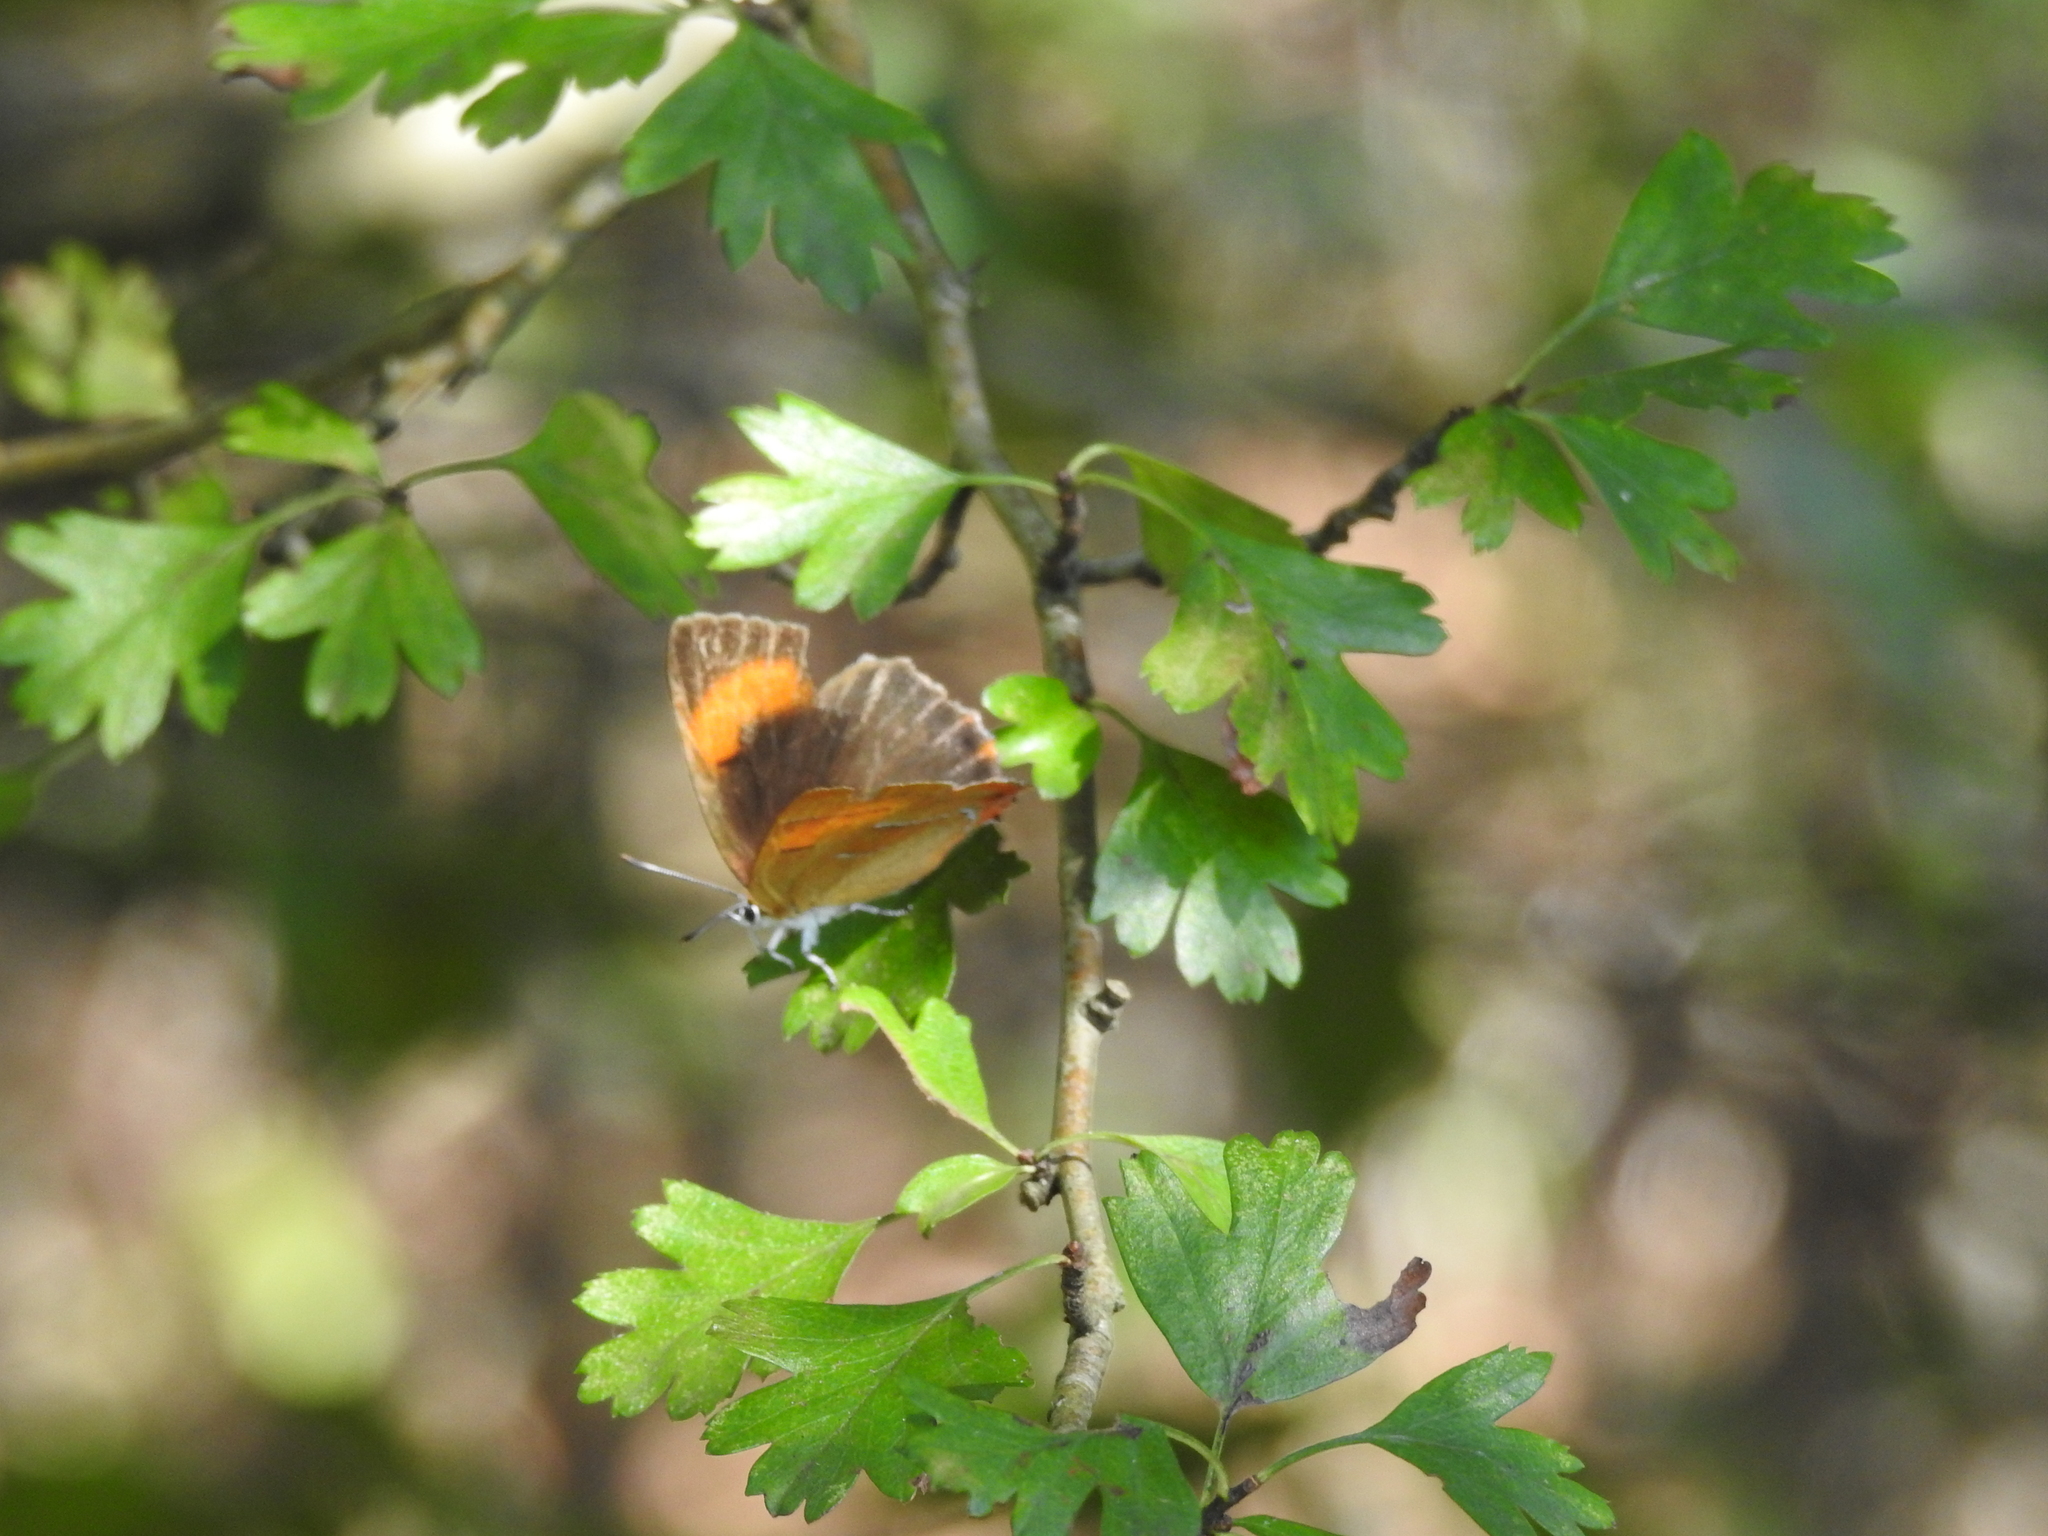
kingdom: Animalia
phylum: Arthropoda
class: Insecta
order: Lepidoptera
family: Lycaenidae
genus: Thecla
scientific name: Thecla betulae
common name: Brown hairstreak
